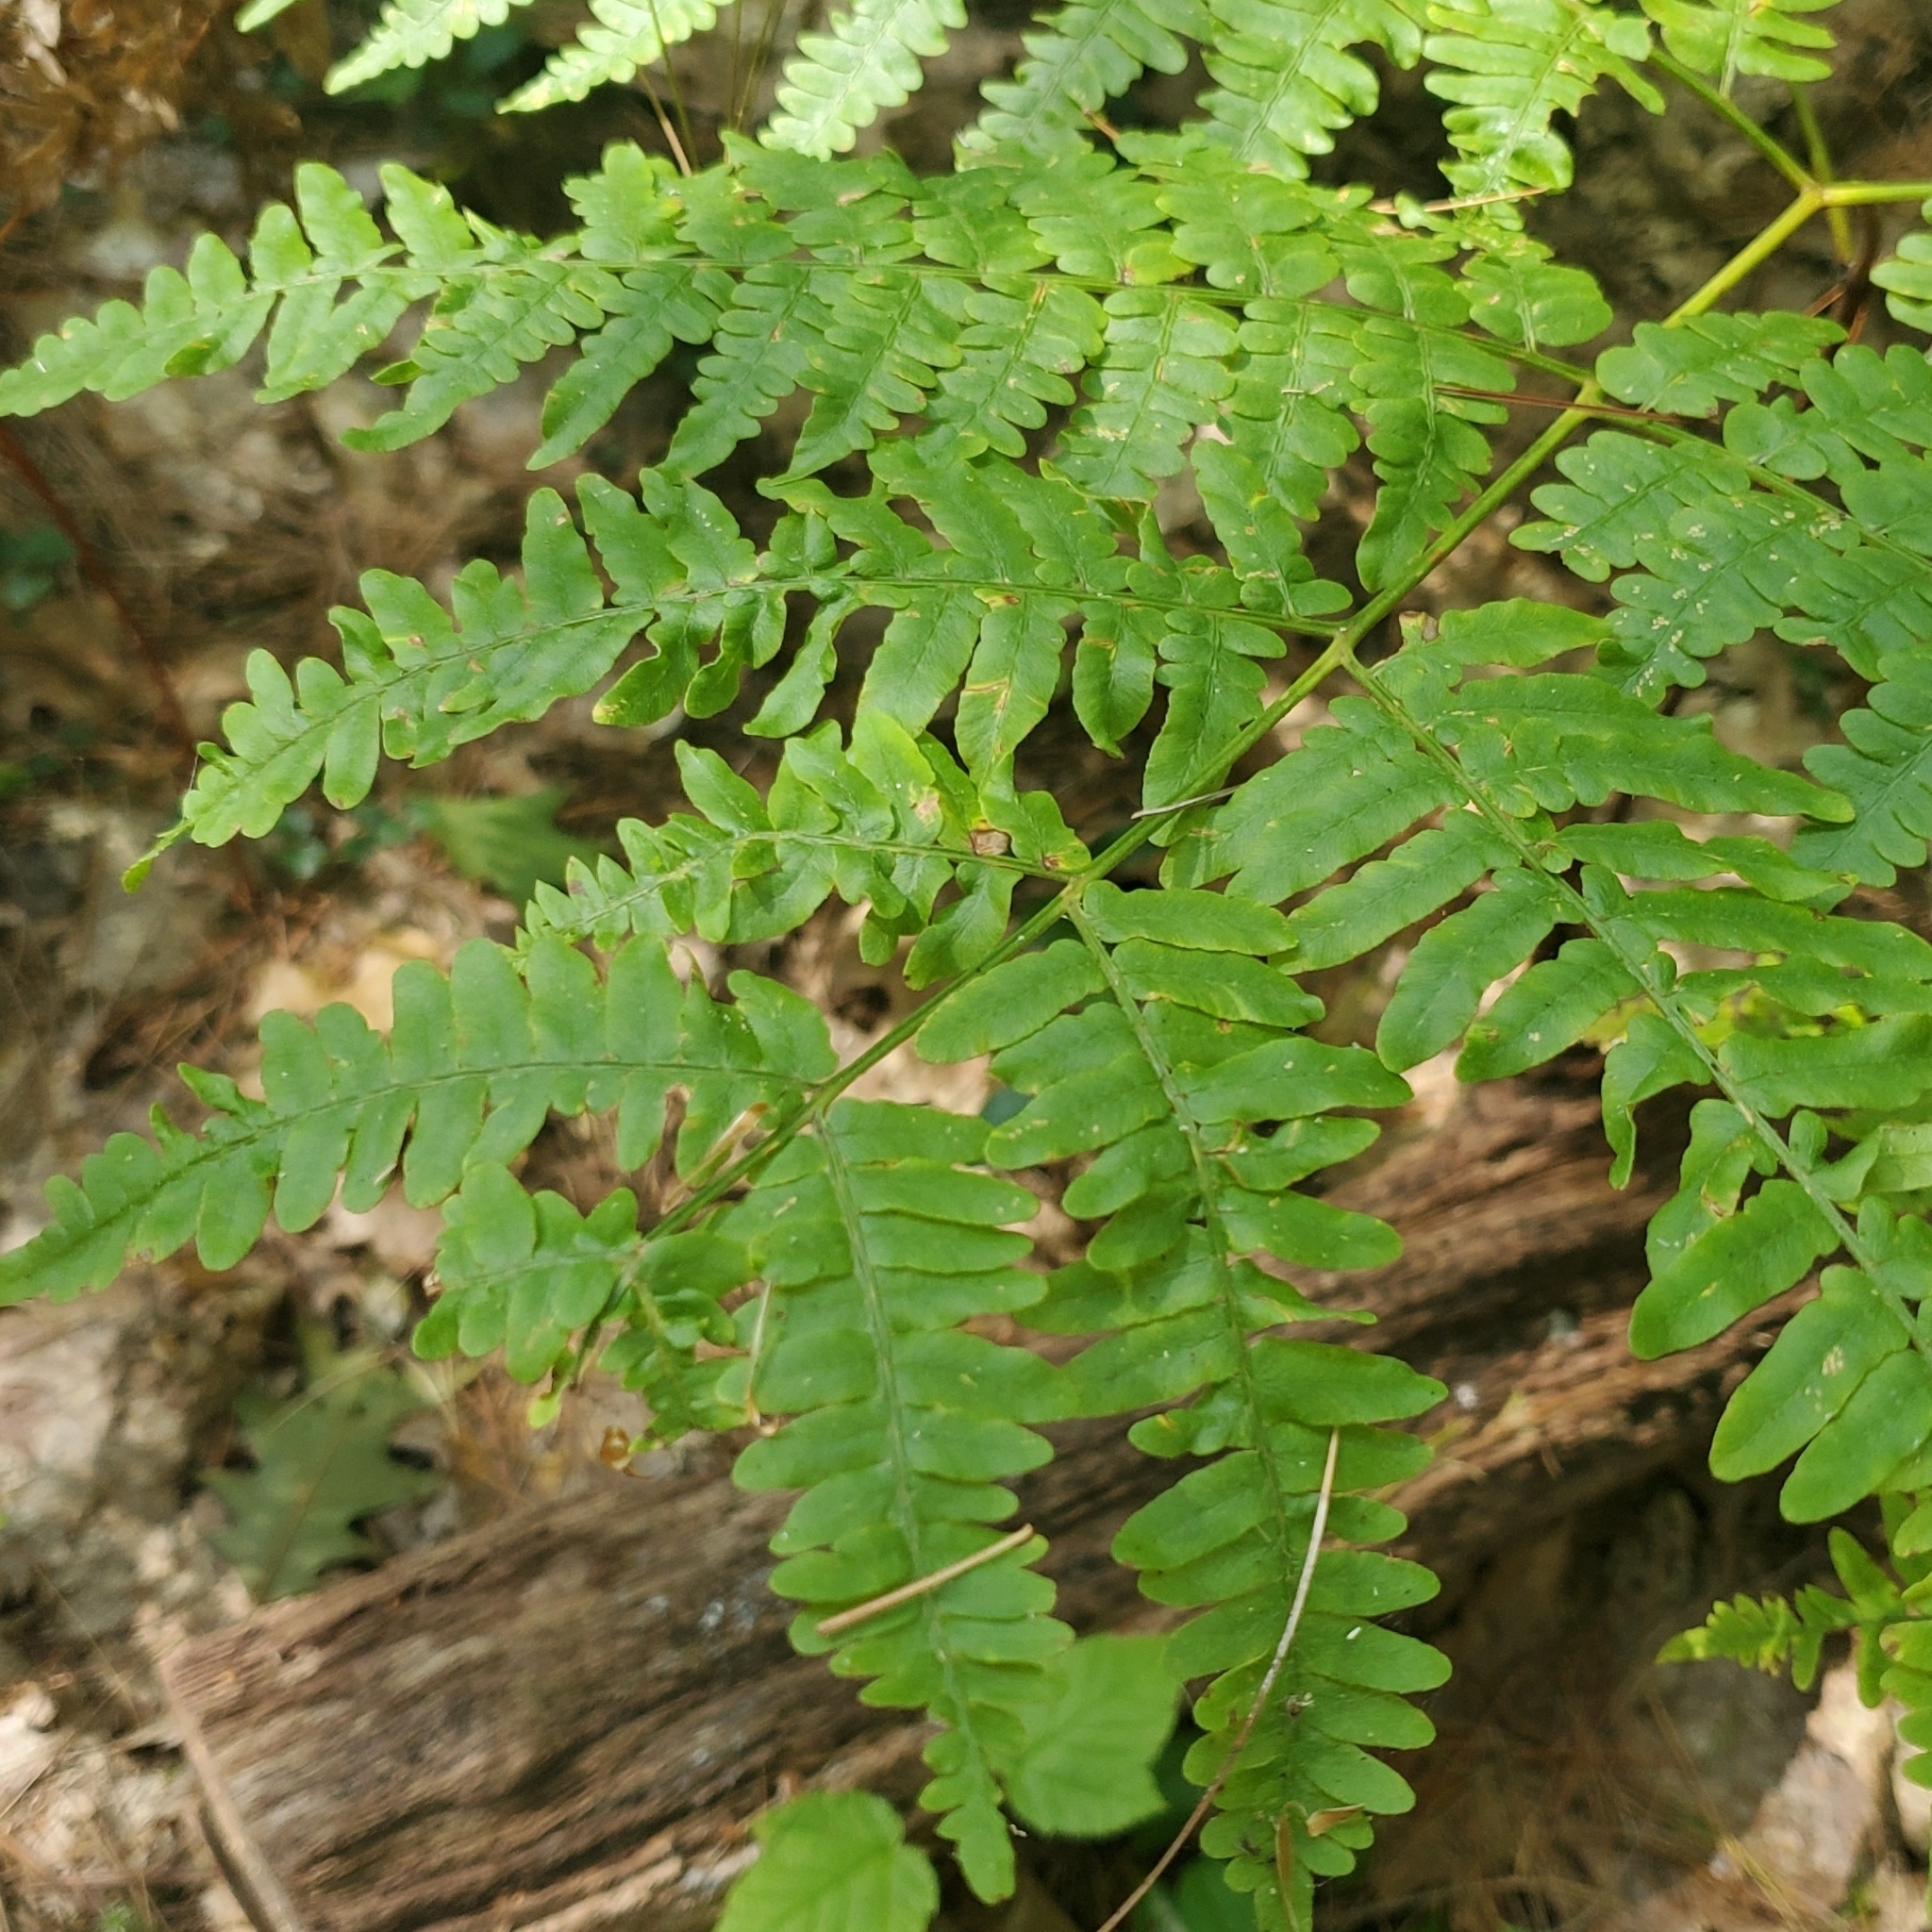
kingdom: Plantae
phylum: Tracheophyta
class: Polypodiopsida
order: Polypodiales
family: Dennstaedtiaceae
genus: Pteridium
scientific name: Pteridium aquilinum
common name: Bracken
